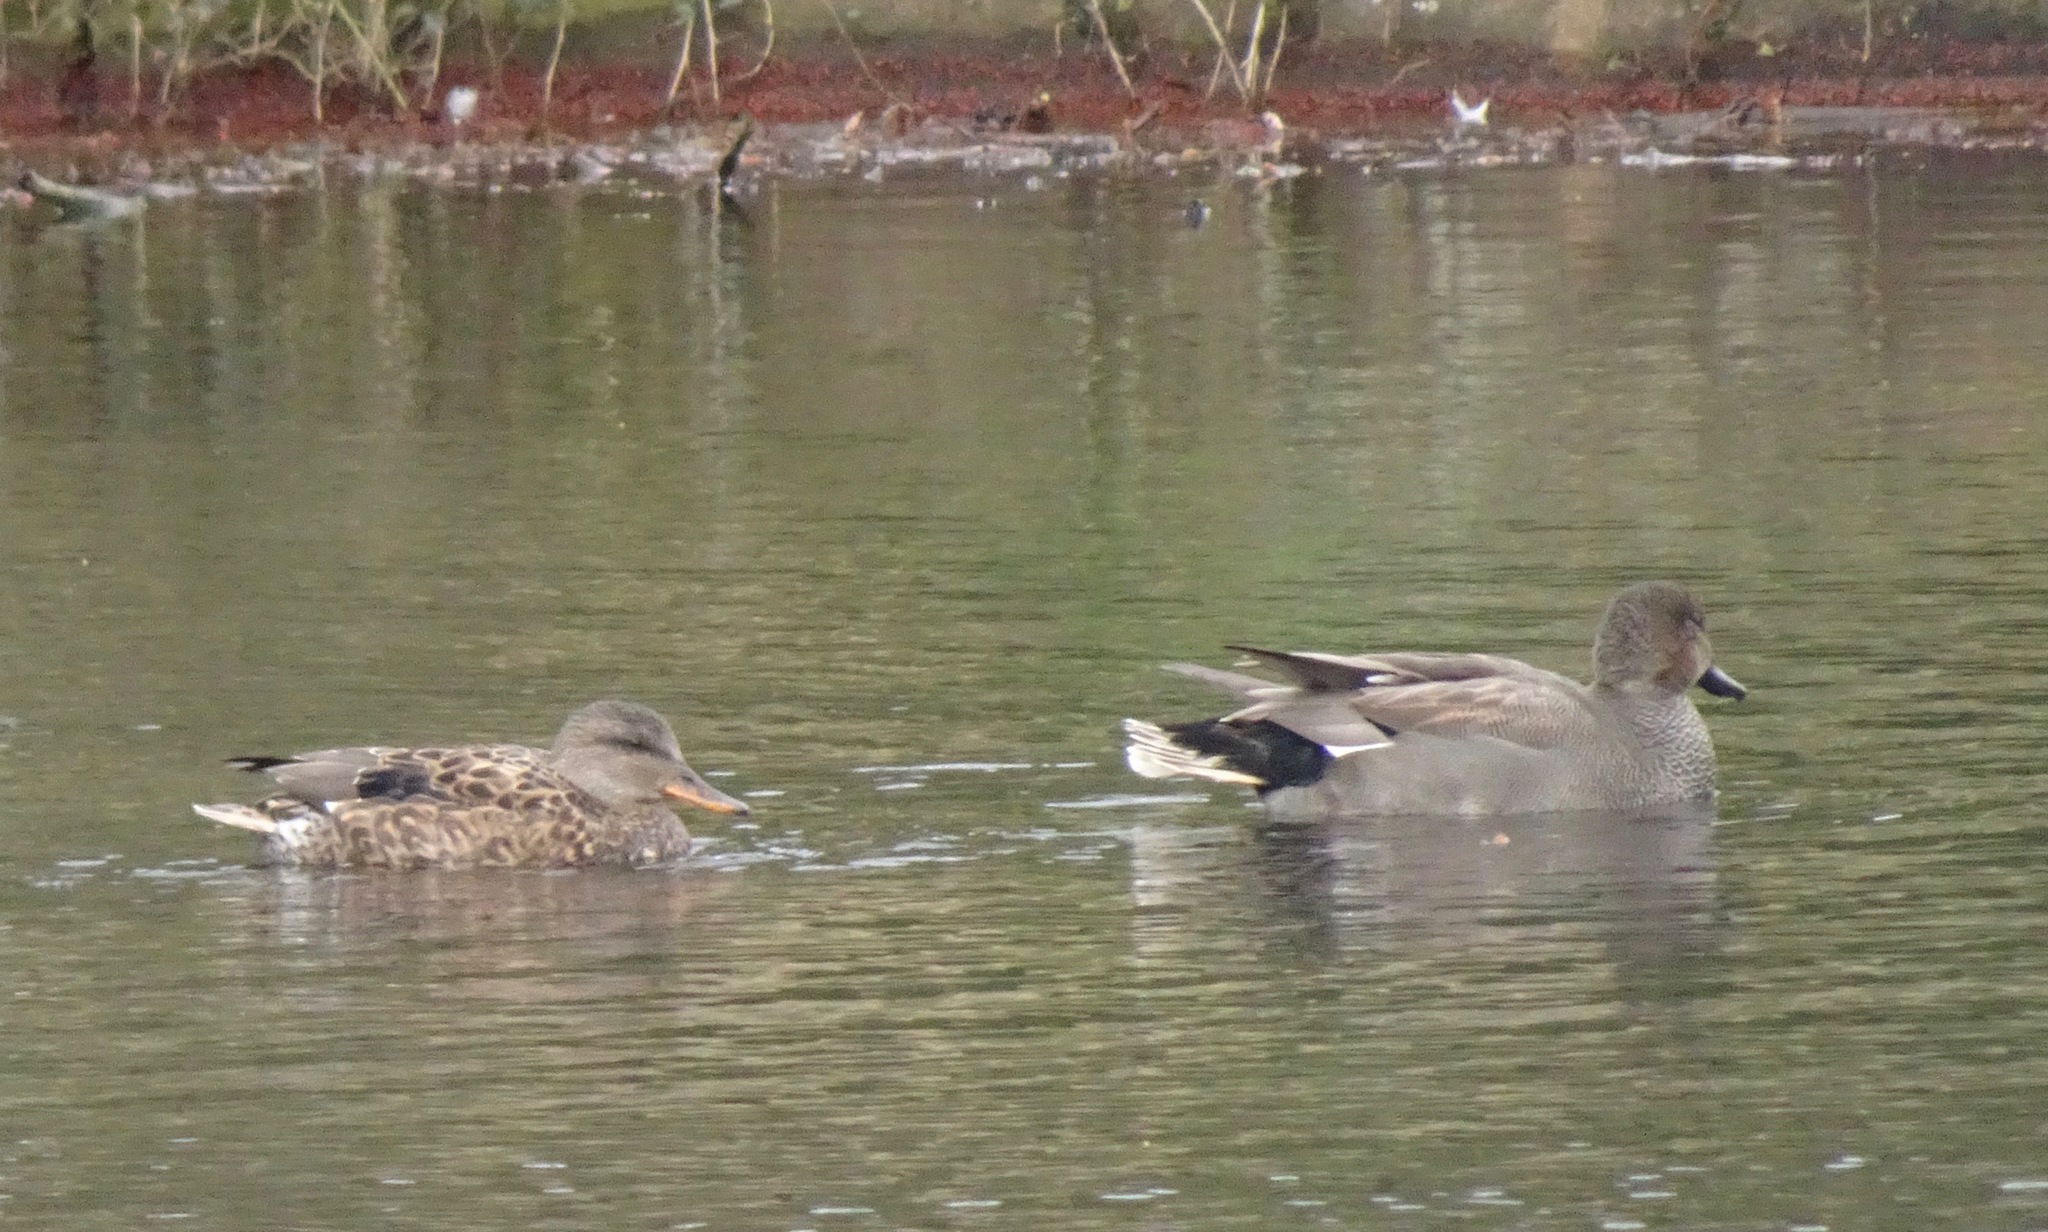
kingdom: Animalia
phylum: Chordata
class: Aves
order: Anseriformes
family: Anatidae
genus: Mareca
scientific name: Mareca strepera
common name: Gadwall
